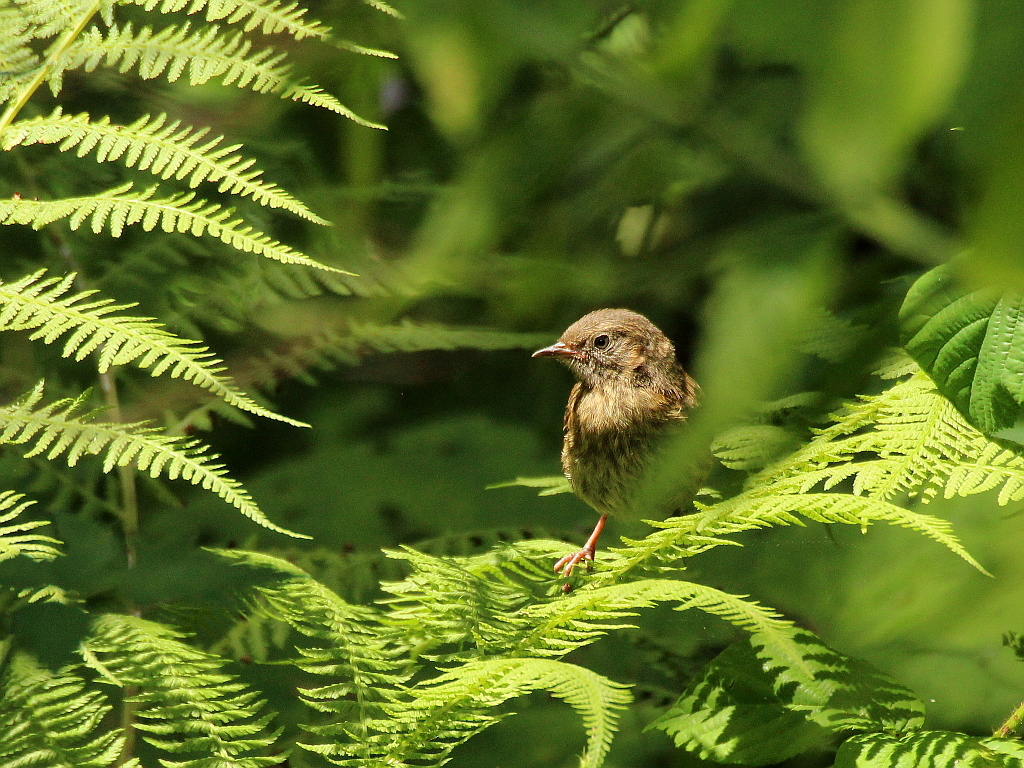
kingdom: Animalia
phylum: Chordata
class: Aves
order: Passeriformes
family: Prunellidae
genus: Prunella
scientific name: Prunella modularis
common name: Dunnock
